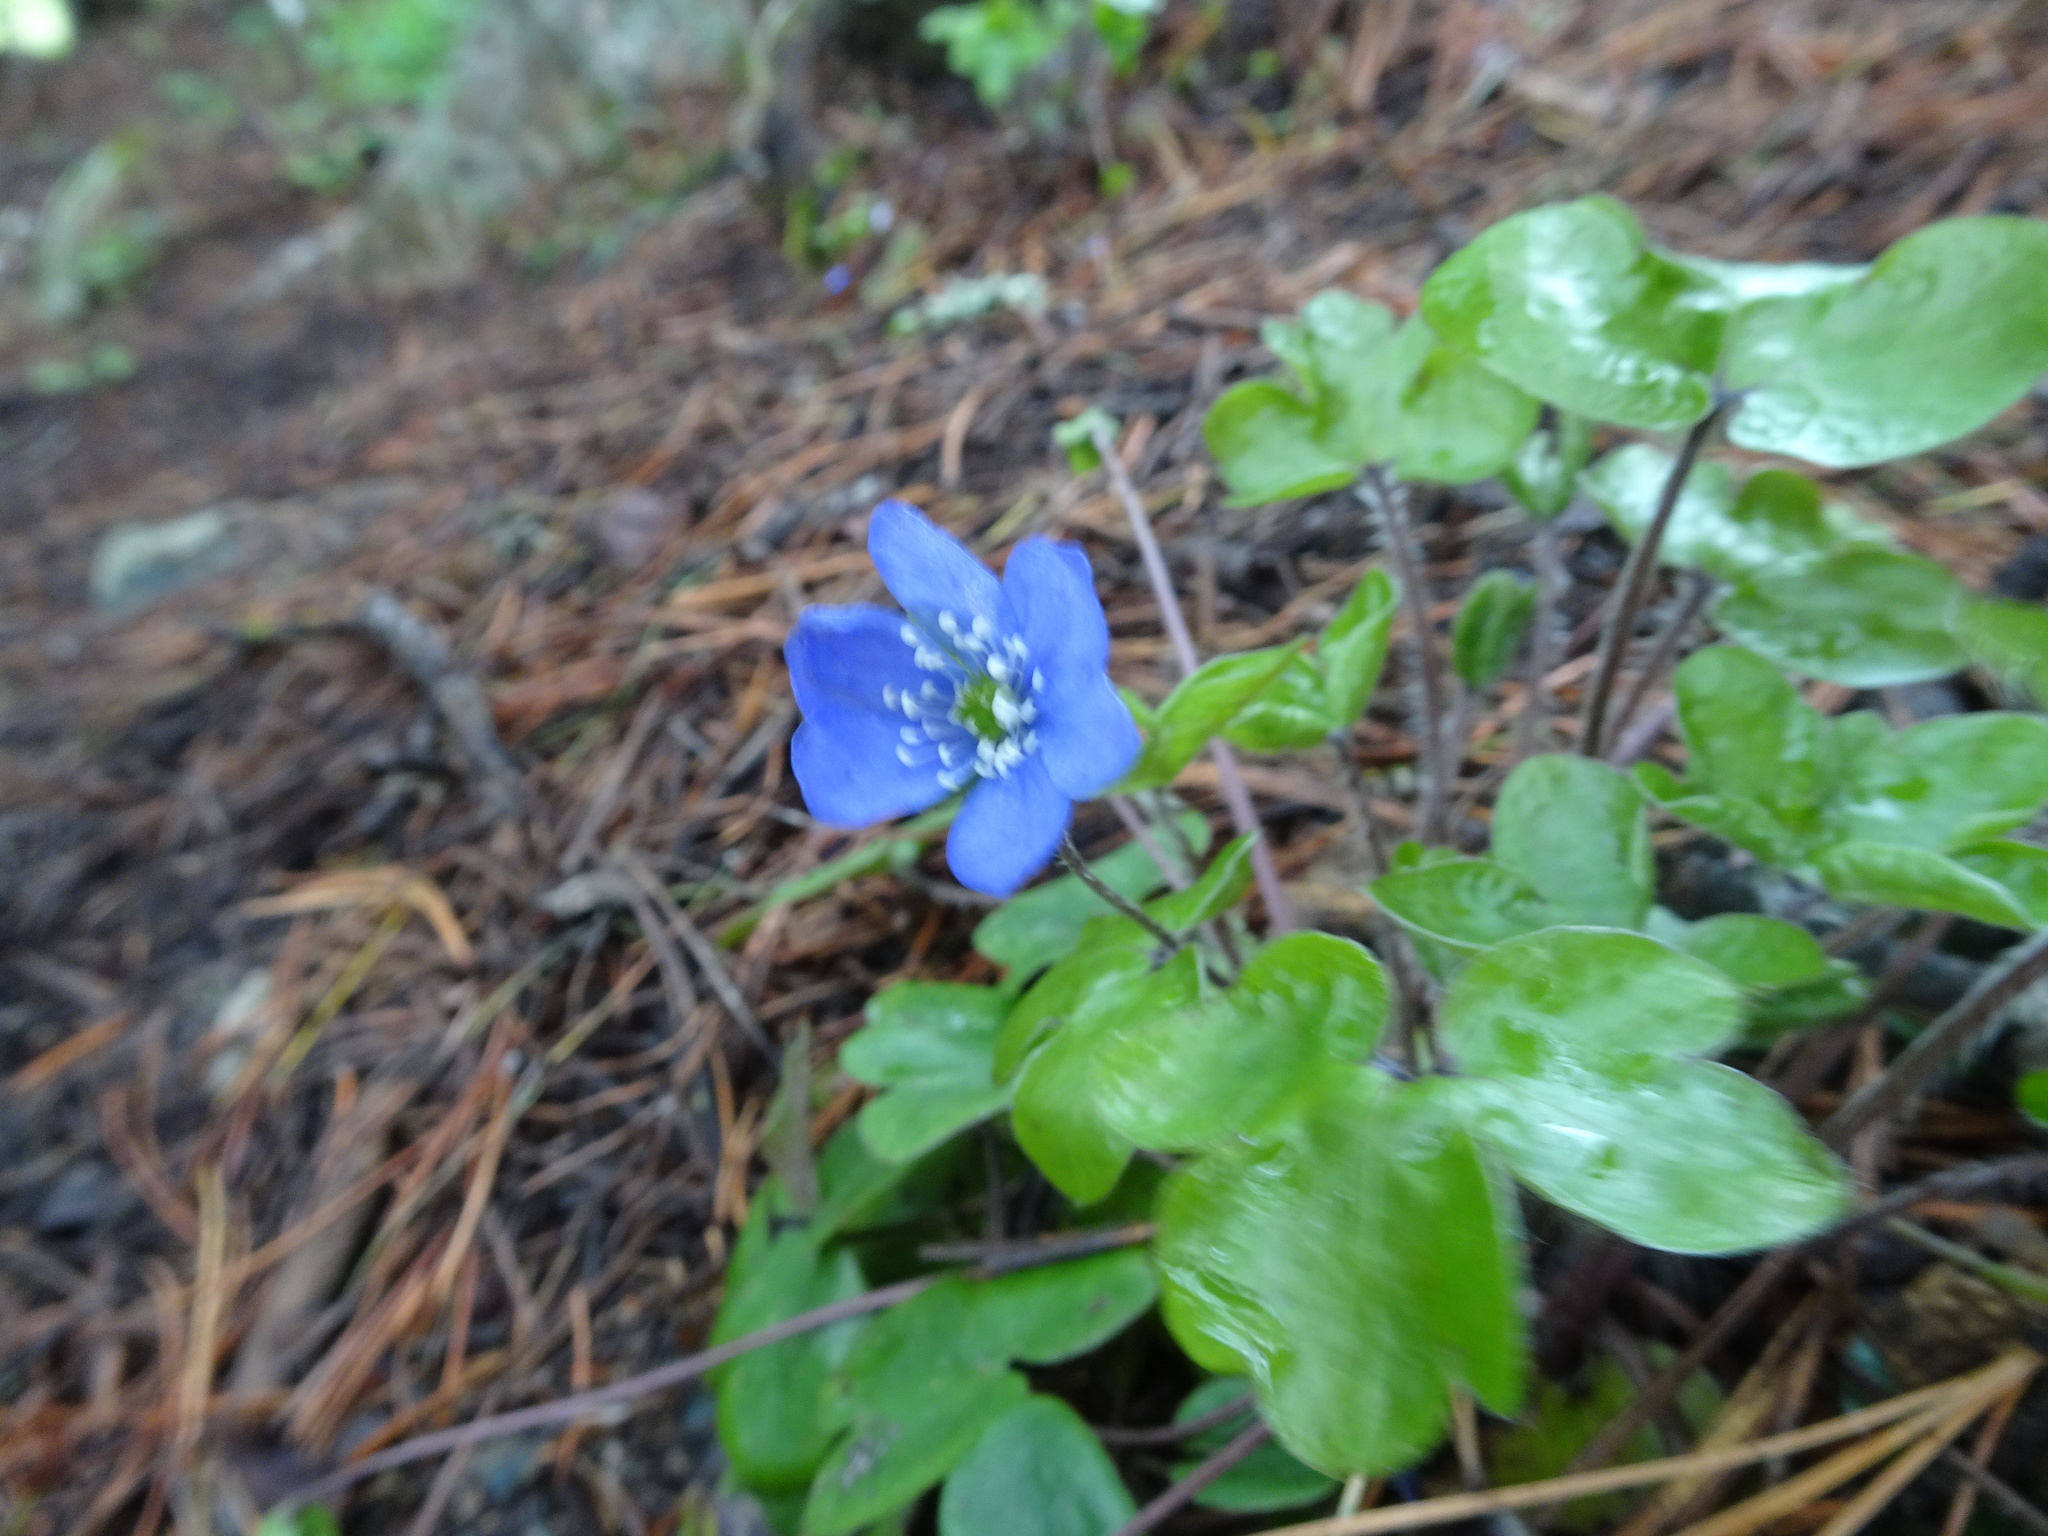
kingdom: Plantae
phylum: Tracheophyta
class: Magnoliopsida
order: Ranunculales
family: Ranunculaceae
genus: Hepatica
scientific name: Hepatica nobilis
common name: Liverleaf
